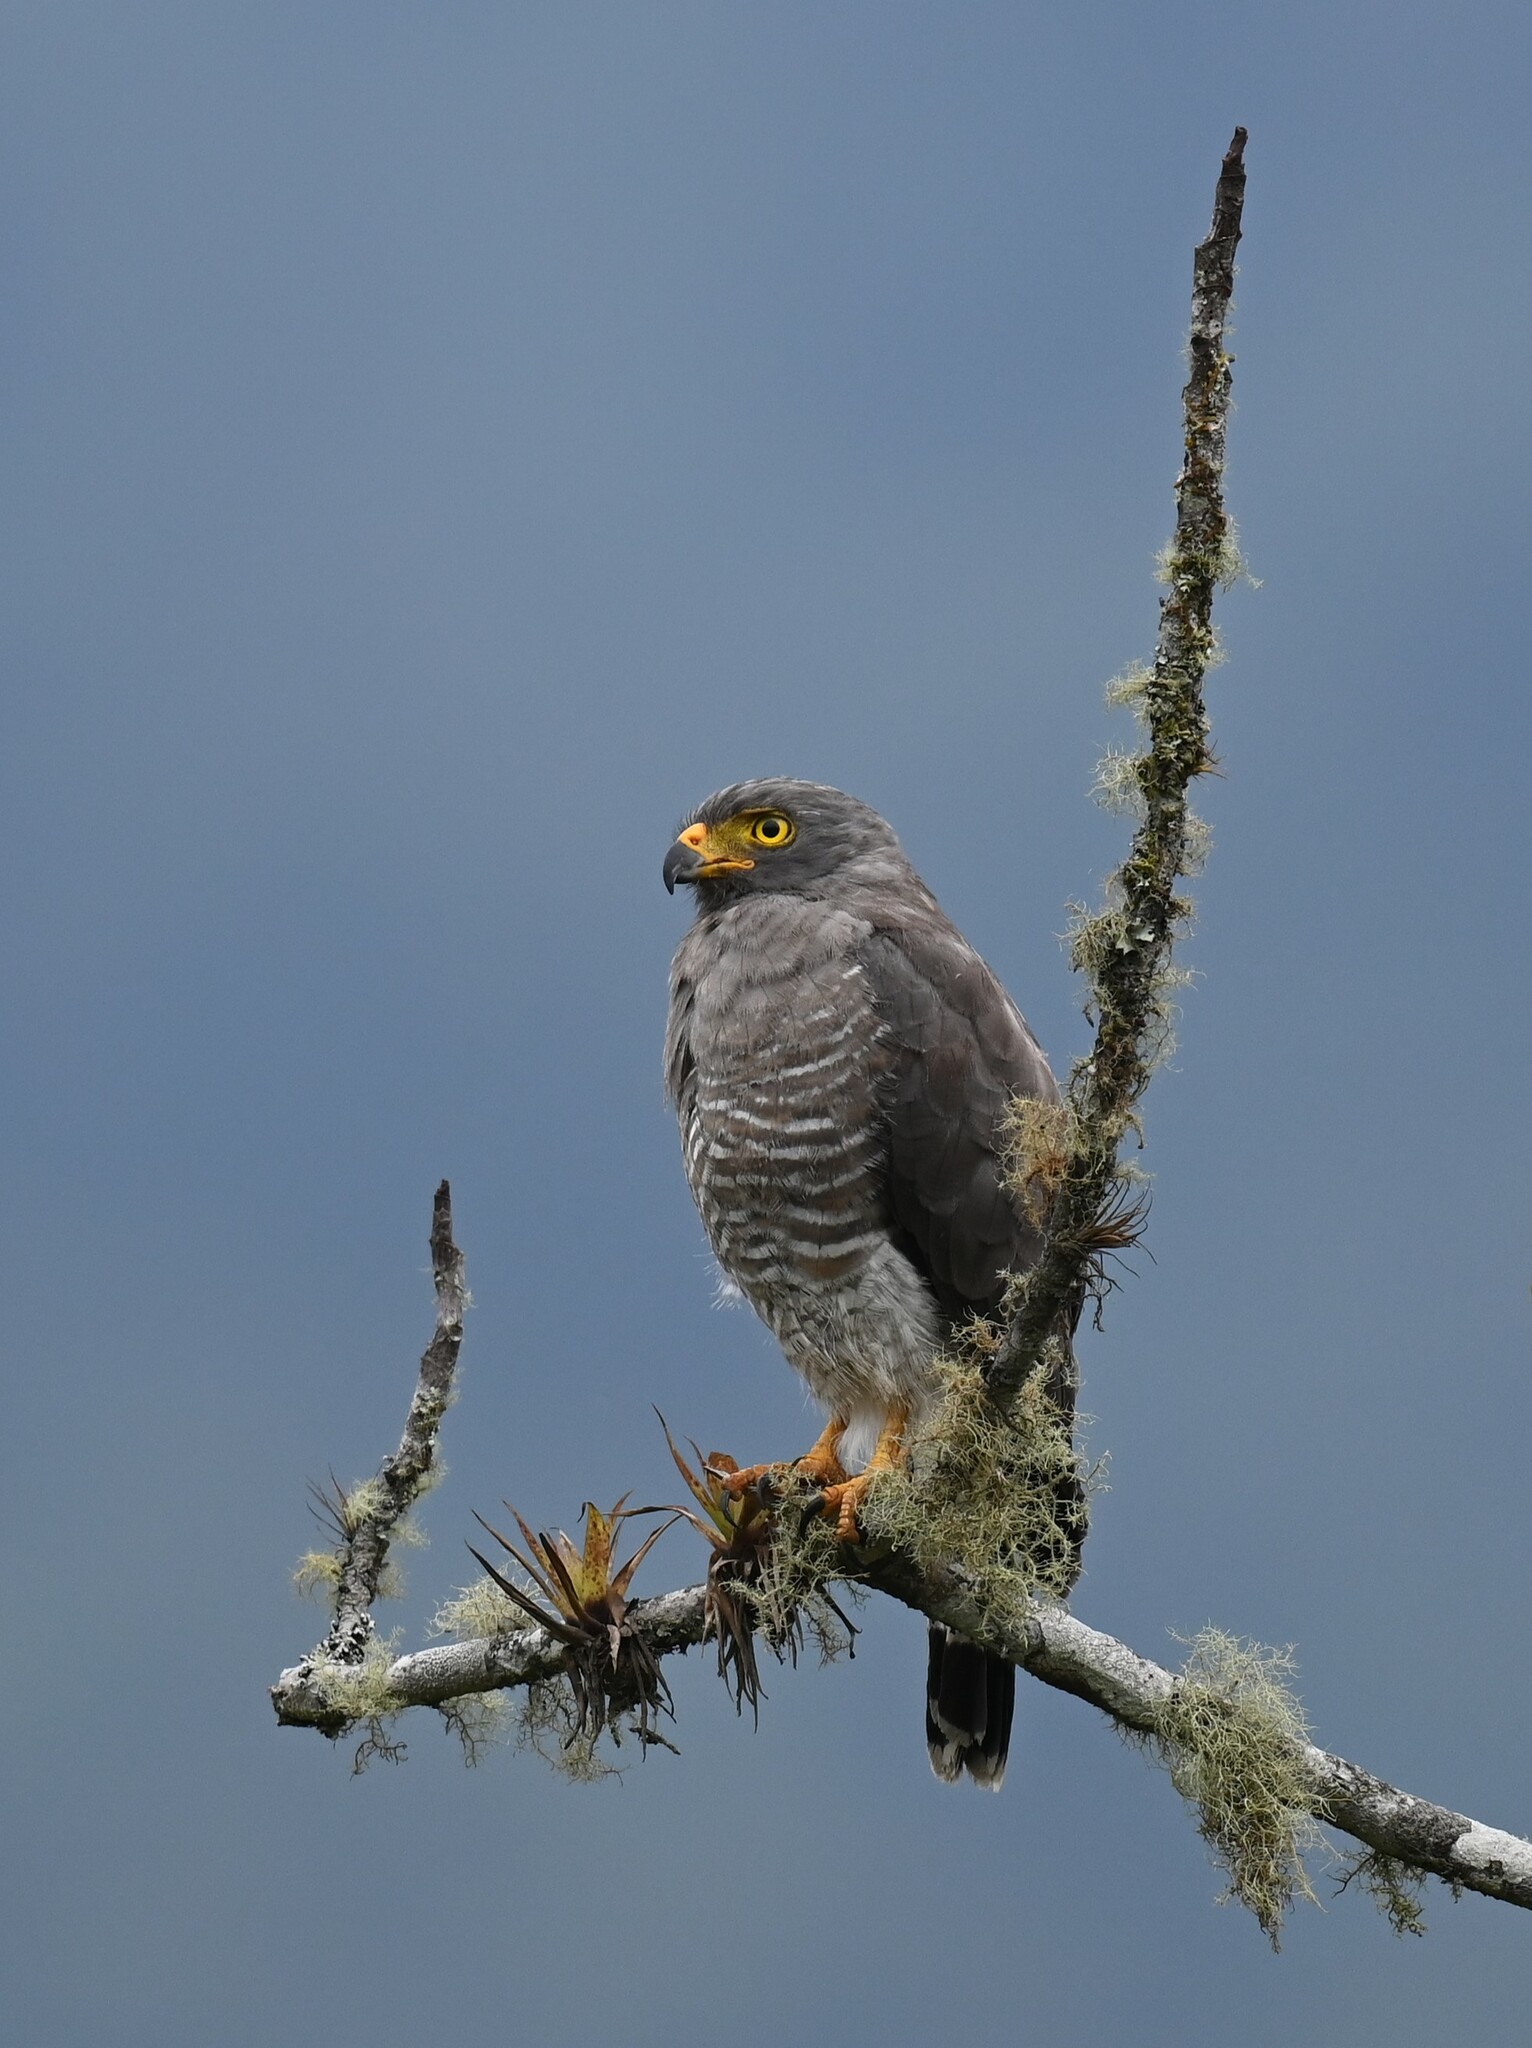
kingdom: Animalia
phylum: Chordata
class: Aves
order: Accipitriformes
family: Accipitridae
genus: Rupornis
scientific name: Rupornis magnirostris
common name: Roadside hawk
